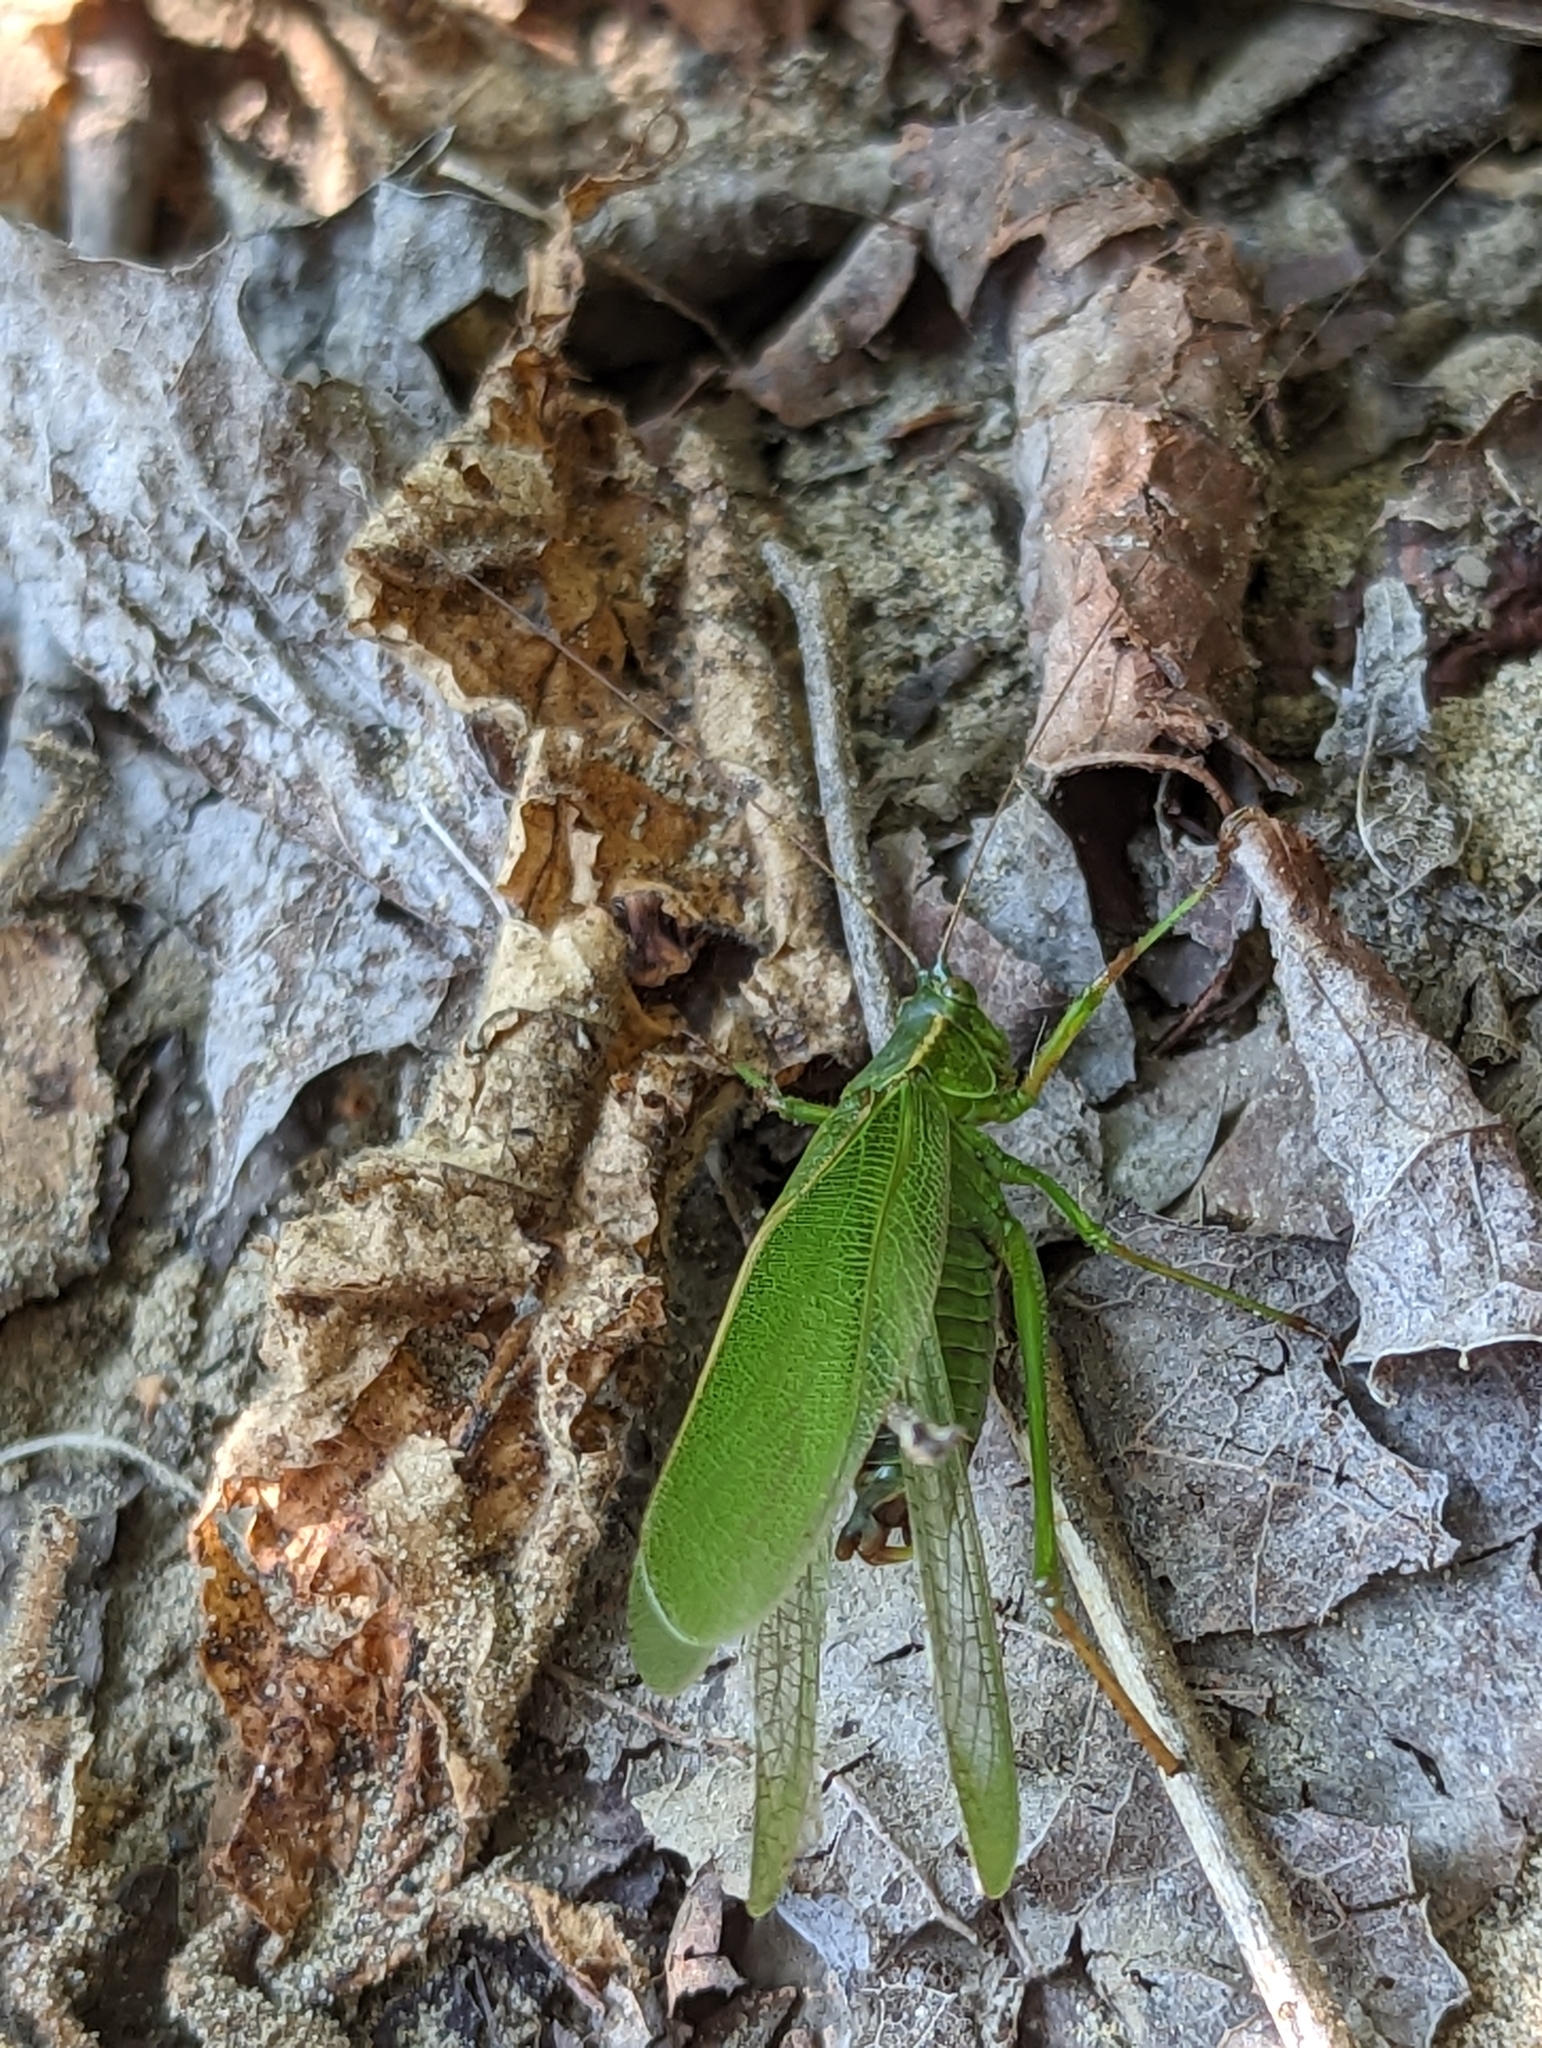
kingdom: Animalia
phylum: Arthropoda
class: Insecta
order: Orthoptera
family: Tettigoniidae
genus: Scudderia
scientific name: Scudderia furcata
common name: Fork-tailed bush katydid
